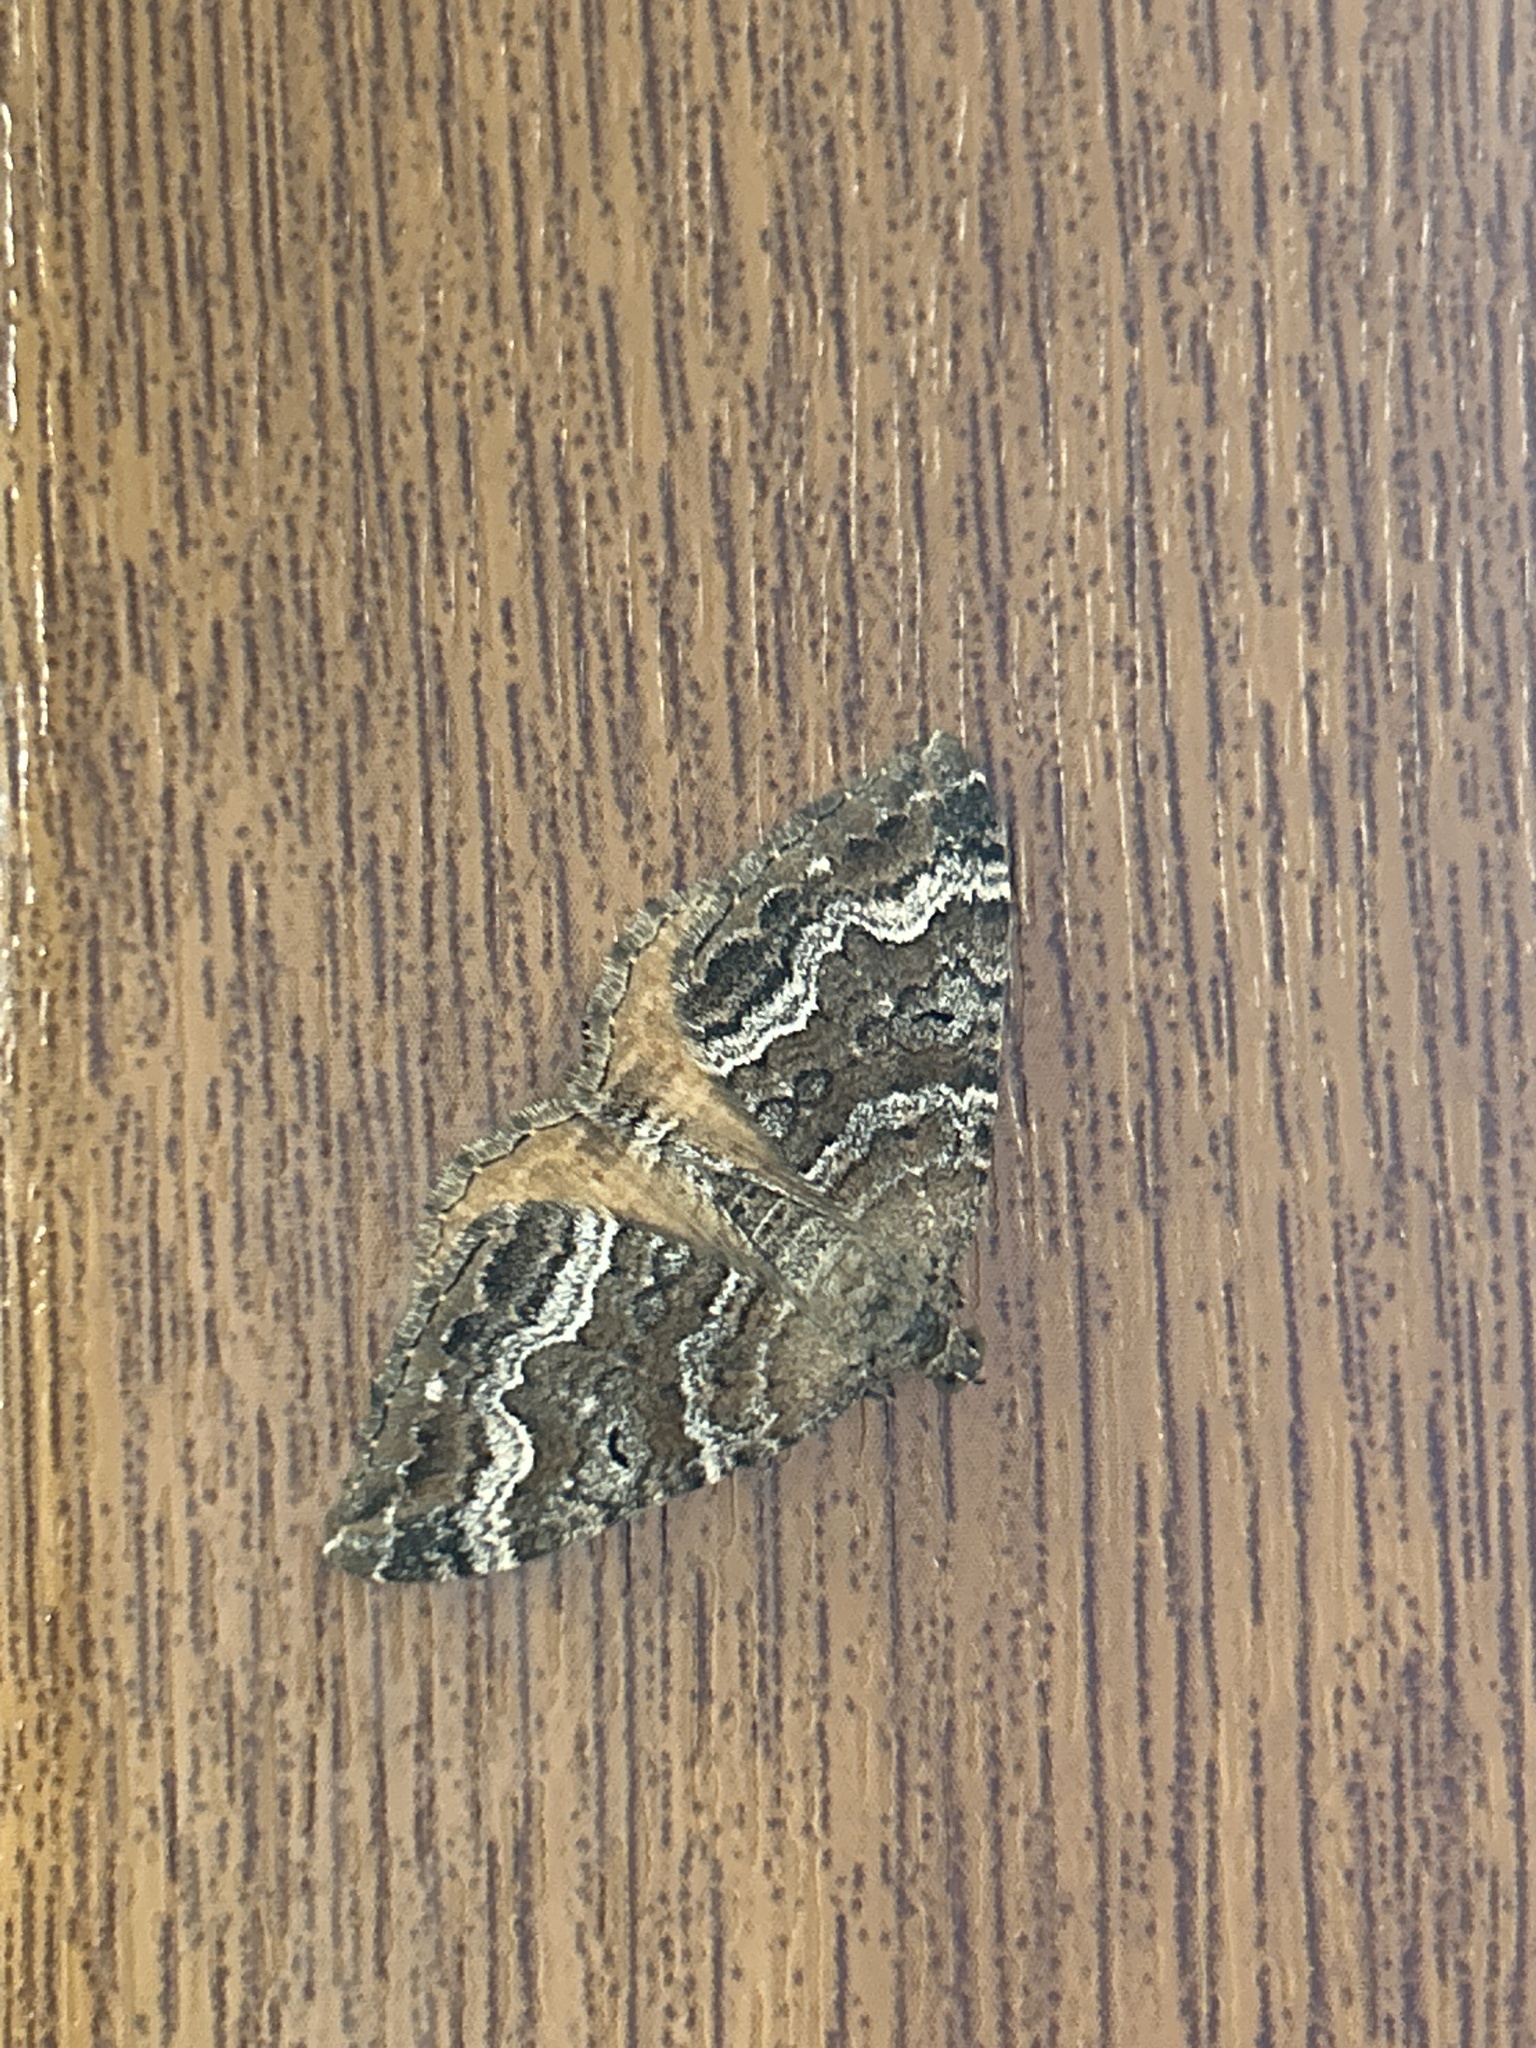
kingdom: Animalia
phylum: Arthropoda
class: Insecta
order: Lepidoptera
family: Geometridae
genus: Hydriomena
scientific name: Hydriomena deltoidata
